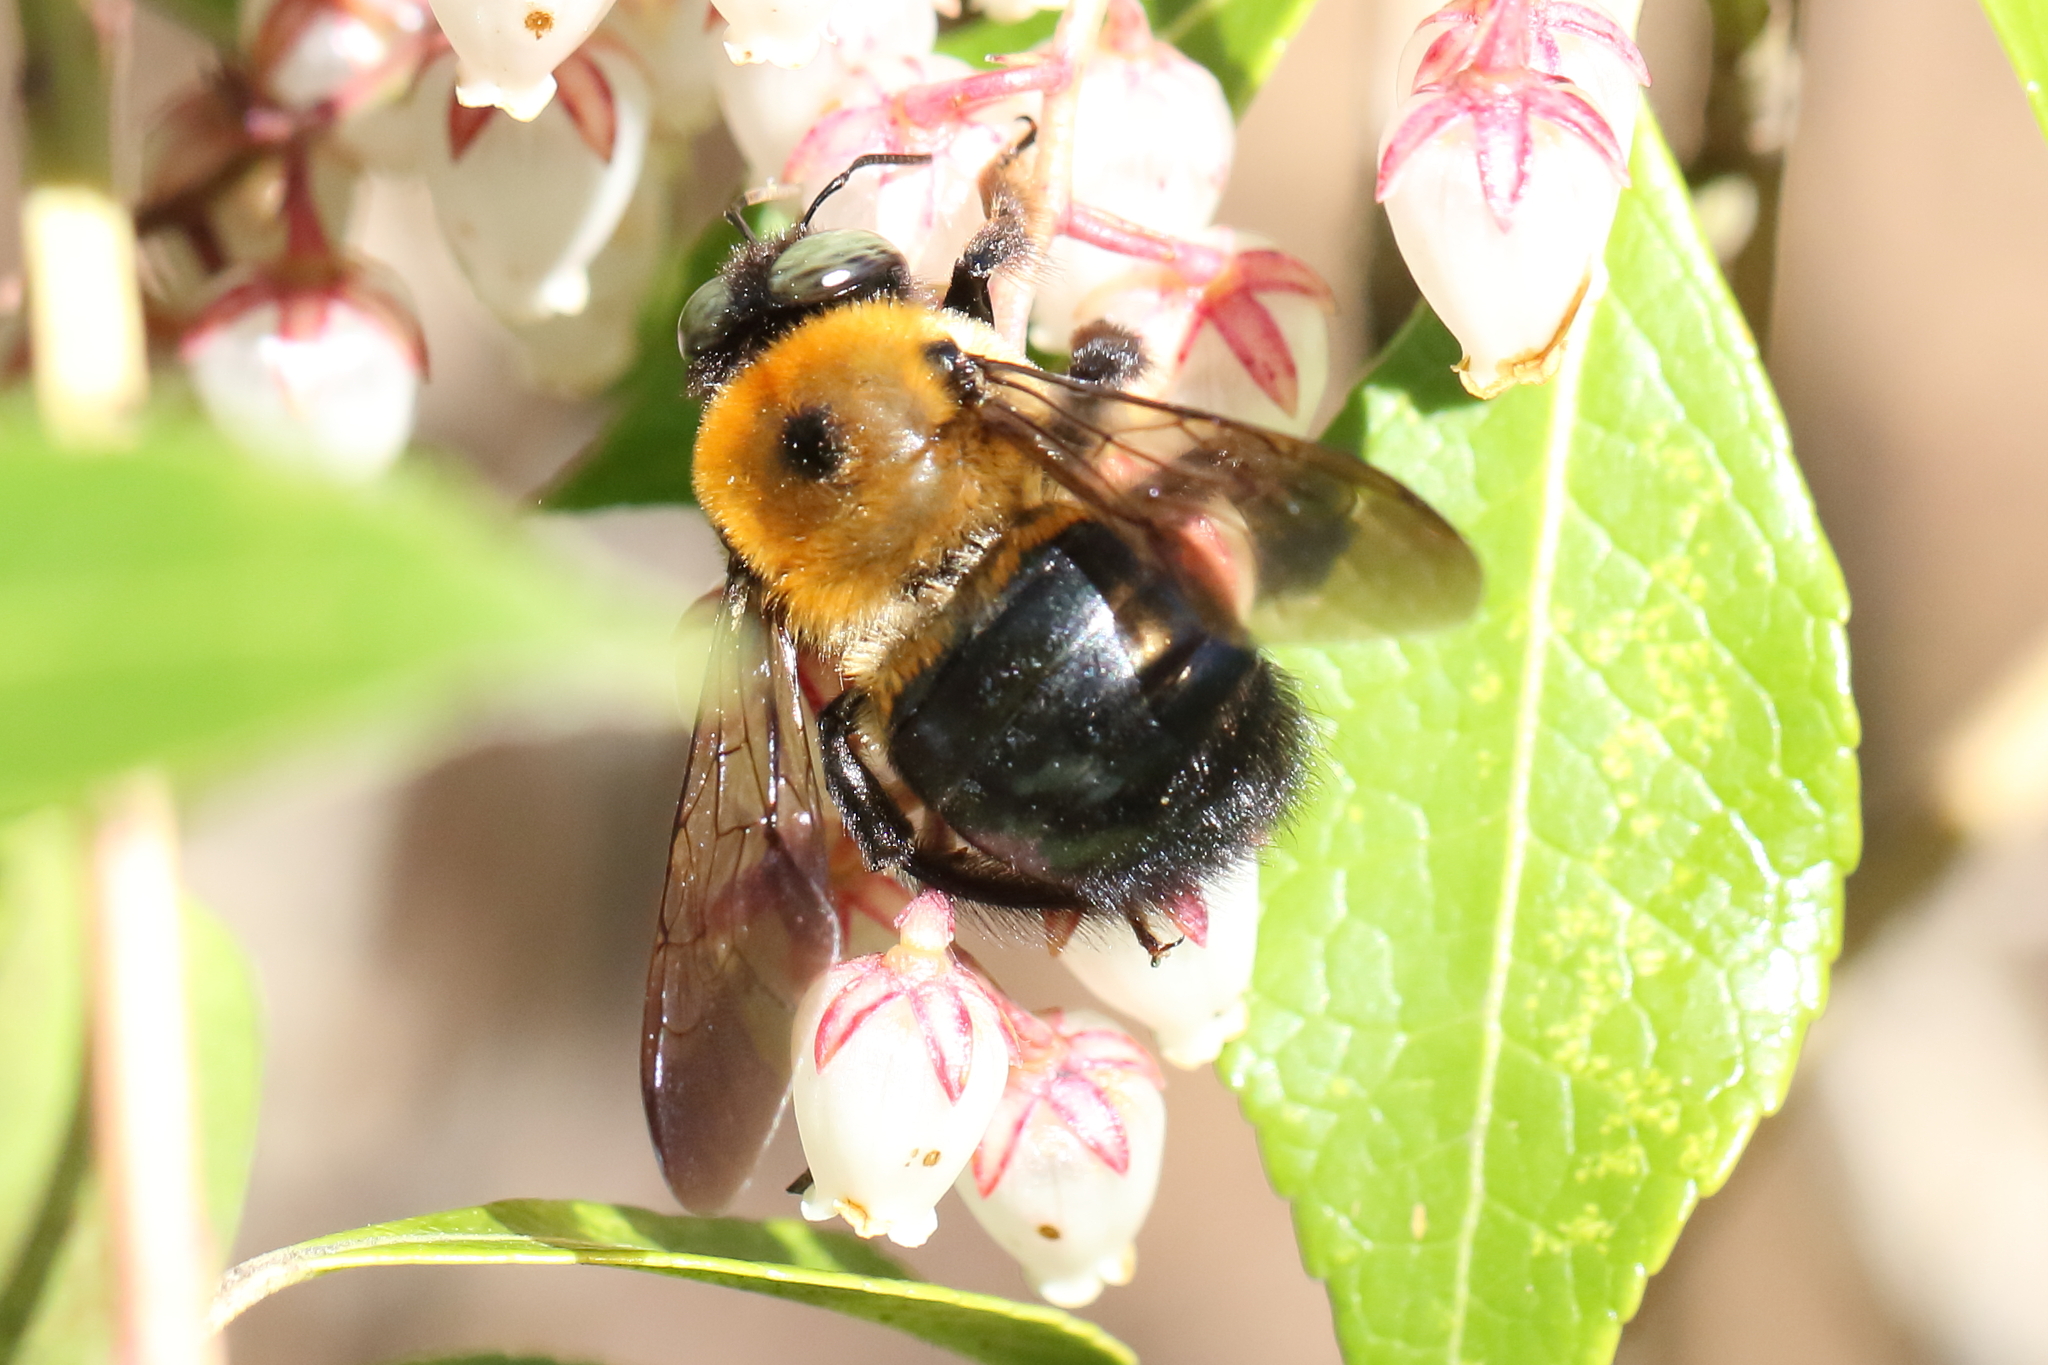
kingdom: Animalia
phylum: Arthropoda
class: Insecta
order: Hymenoptera
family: Apidae
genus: Xylocopa
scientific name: Xylocopa virginica
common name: Carpenter bee
